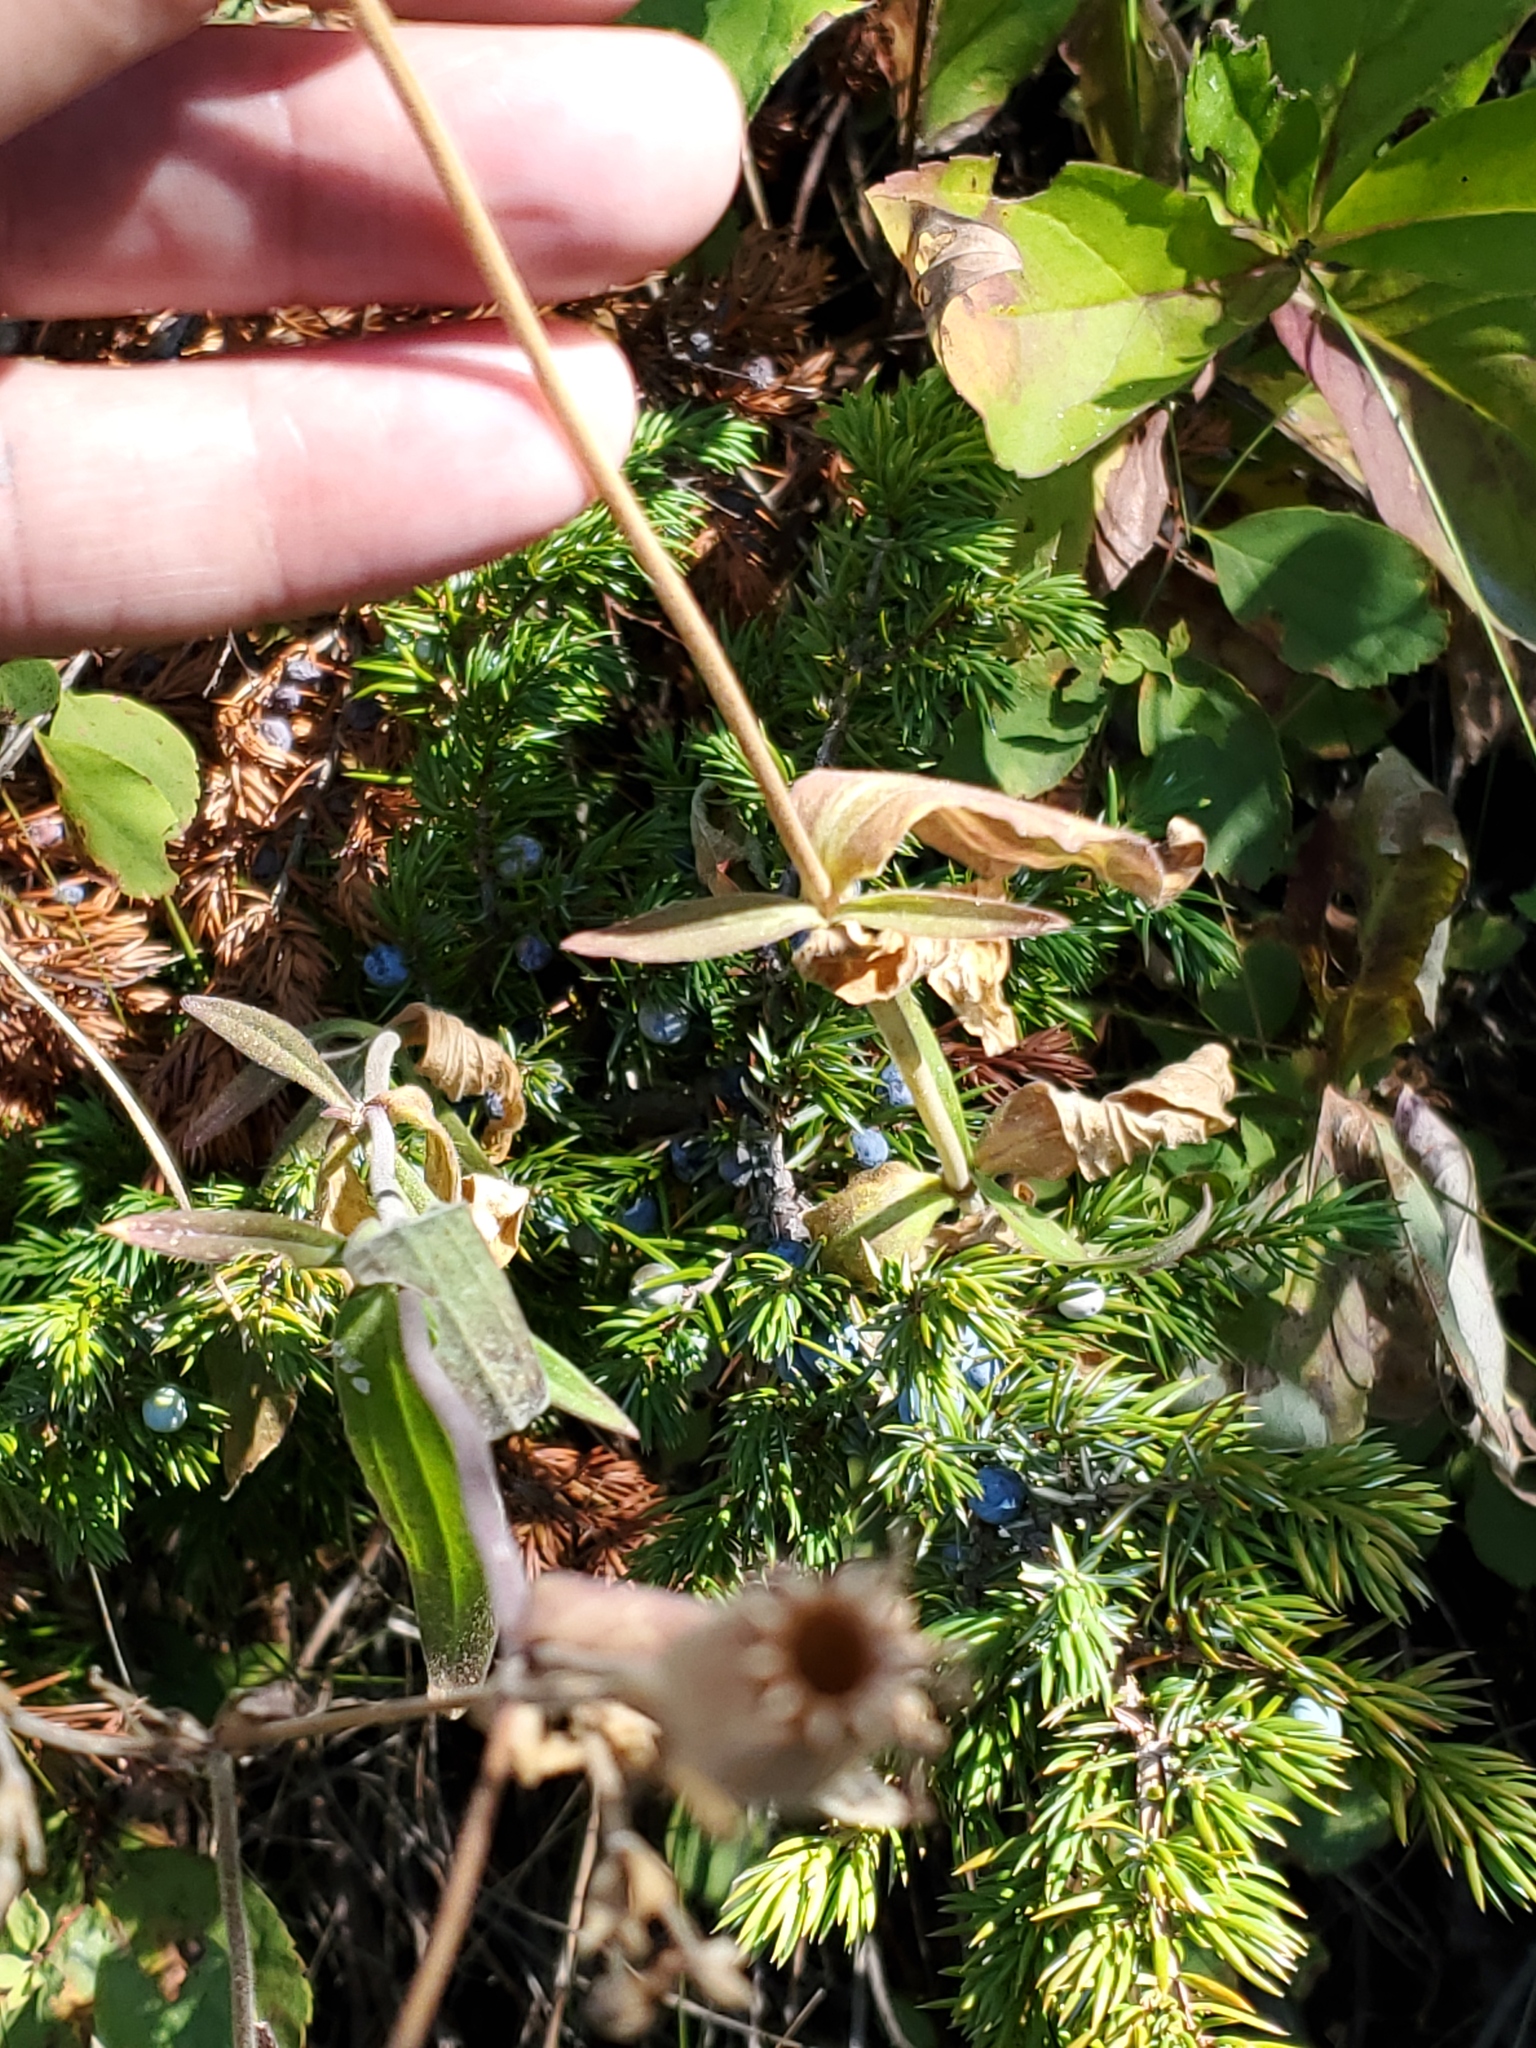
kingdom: Plantae
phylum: Tracheophyta
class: Magnoliopsida
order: Caryophyllales
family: Caryophyllaceae
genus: Silene
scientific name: Silene latifolia
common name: White campion
